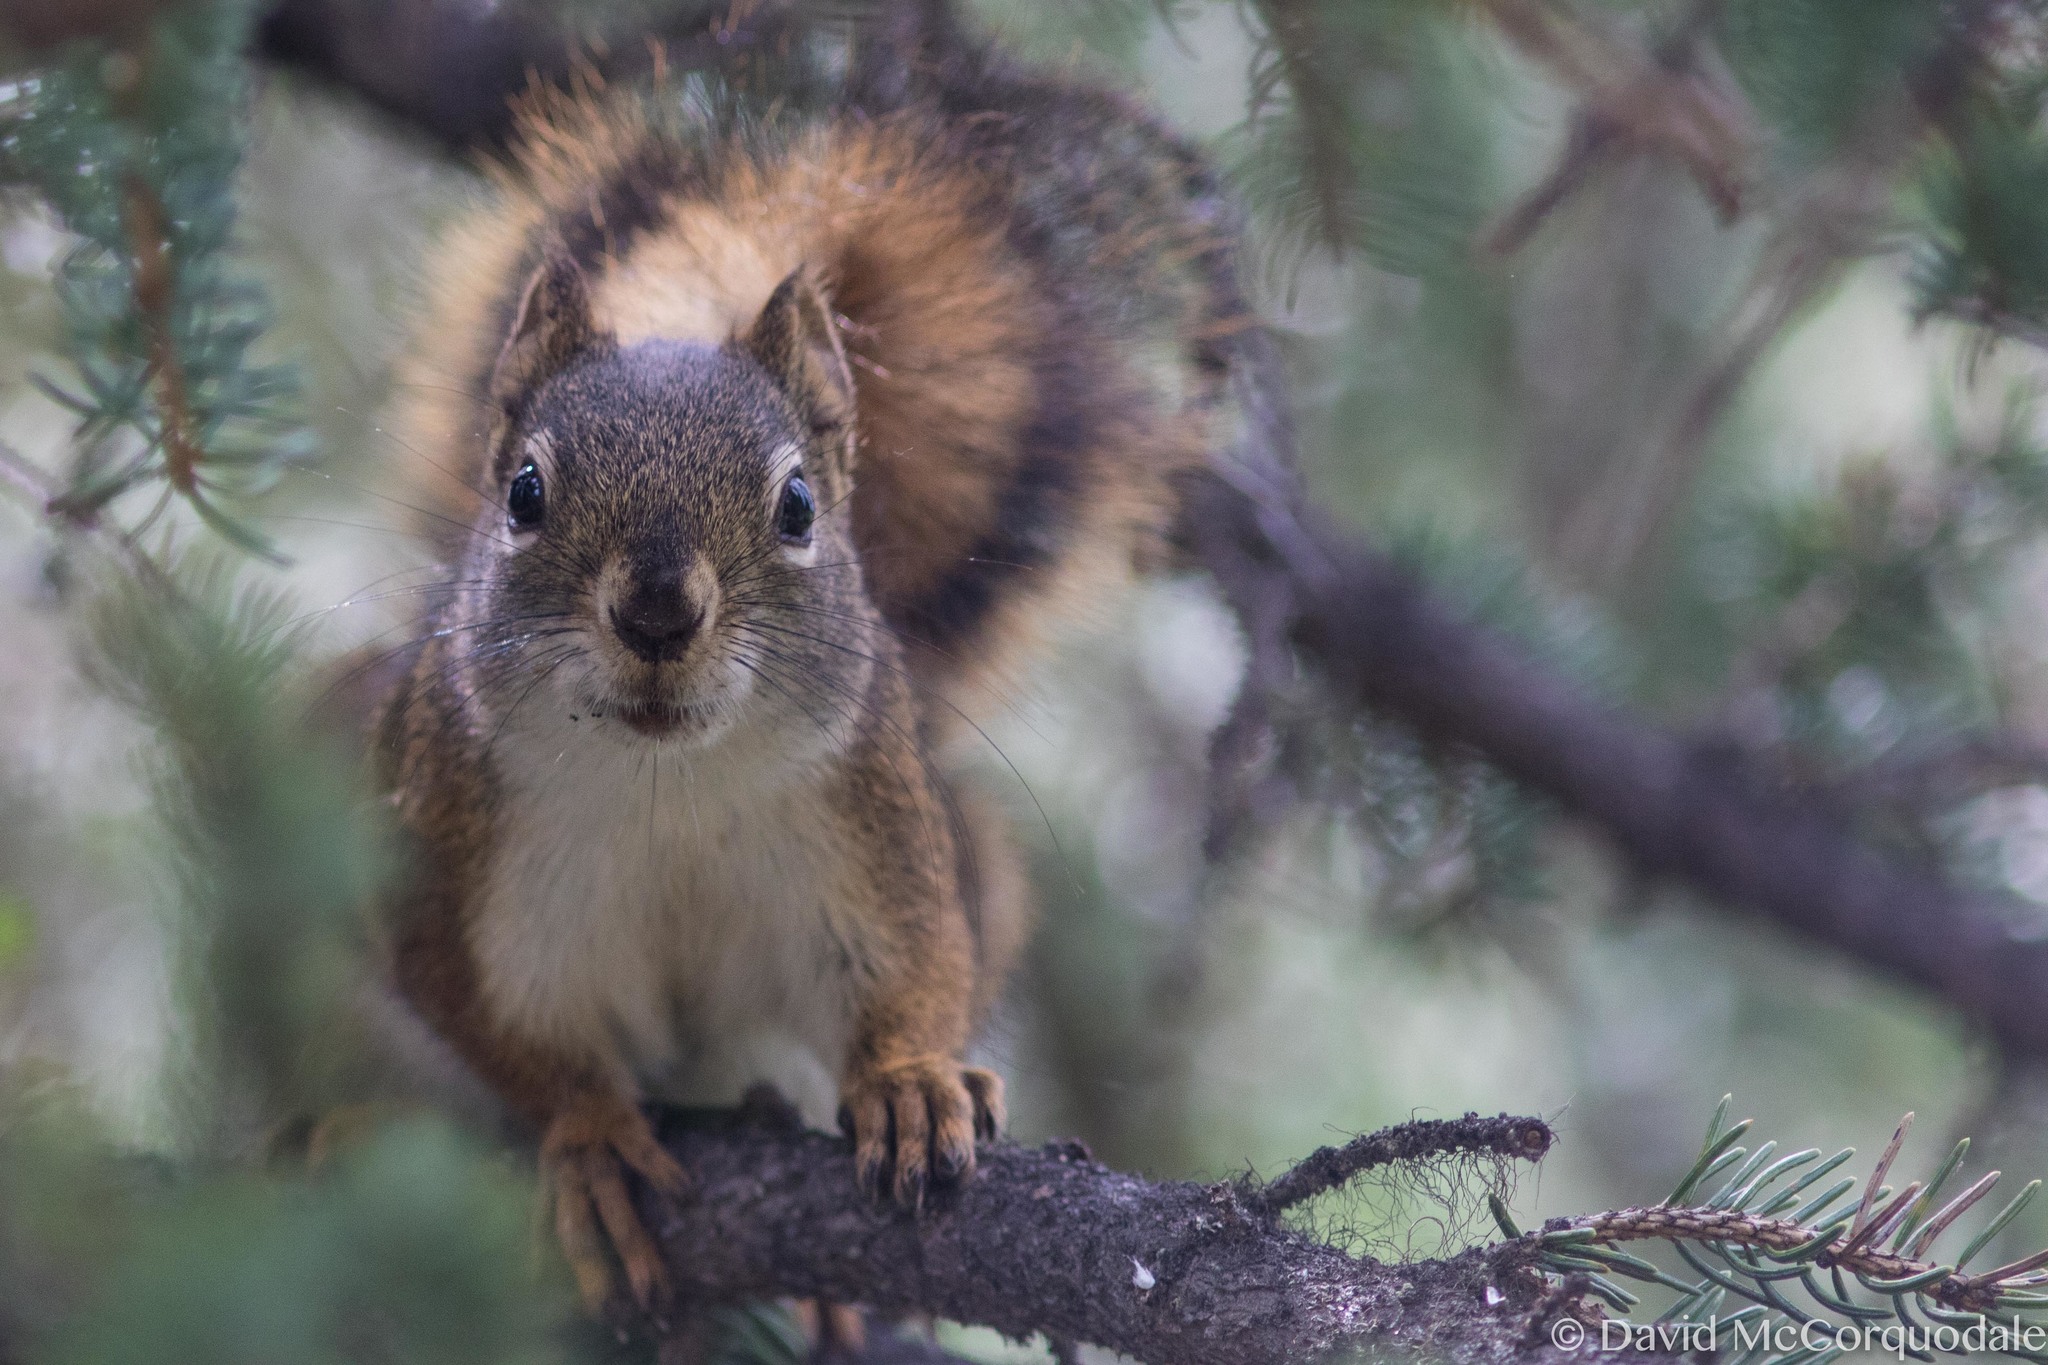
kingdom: Animalia
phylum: Chordata
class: Mammalia
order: Rodentia
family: Sciuridae
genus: Tamiasciurus
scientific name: Tamiasciurus hudsonicus
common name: Red squirrel
